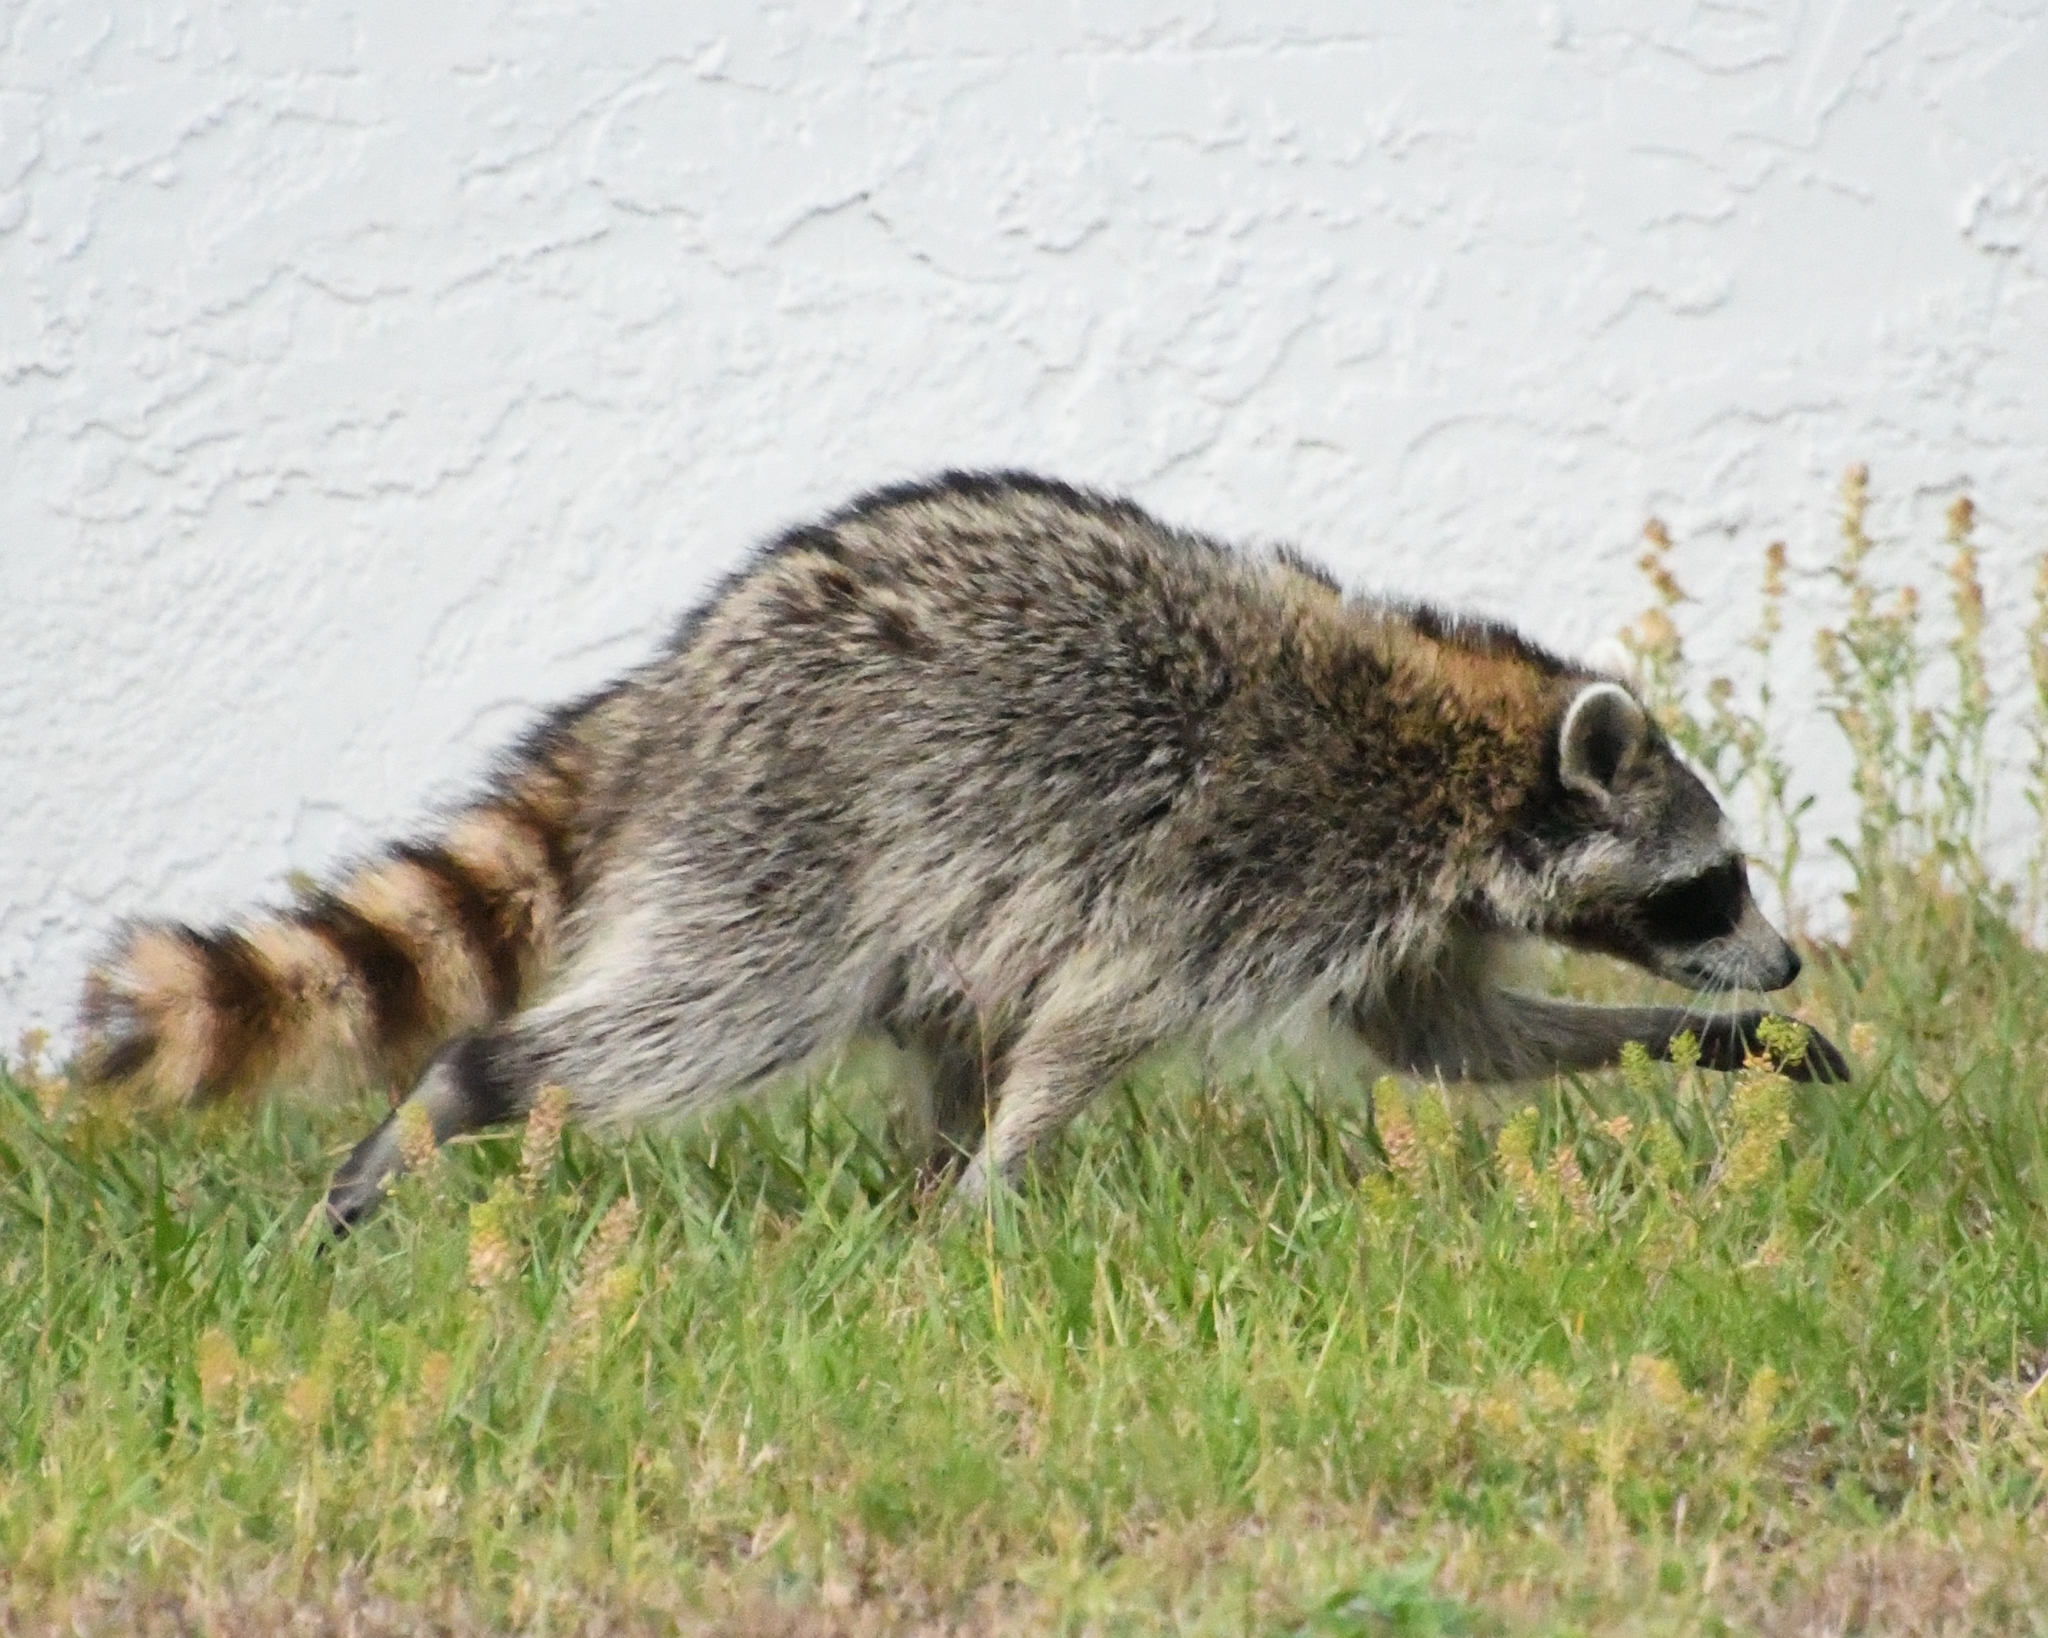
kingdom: Animalia
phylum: Chordata
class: Mammalia
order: Carnivora
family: Procyonidae
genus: Procyon
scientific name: Procyon lotor
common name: Raccoon
